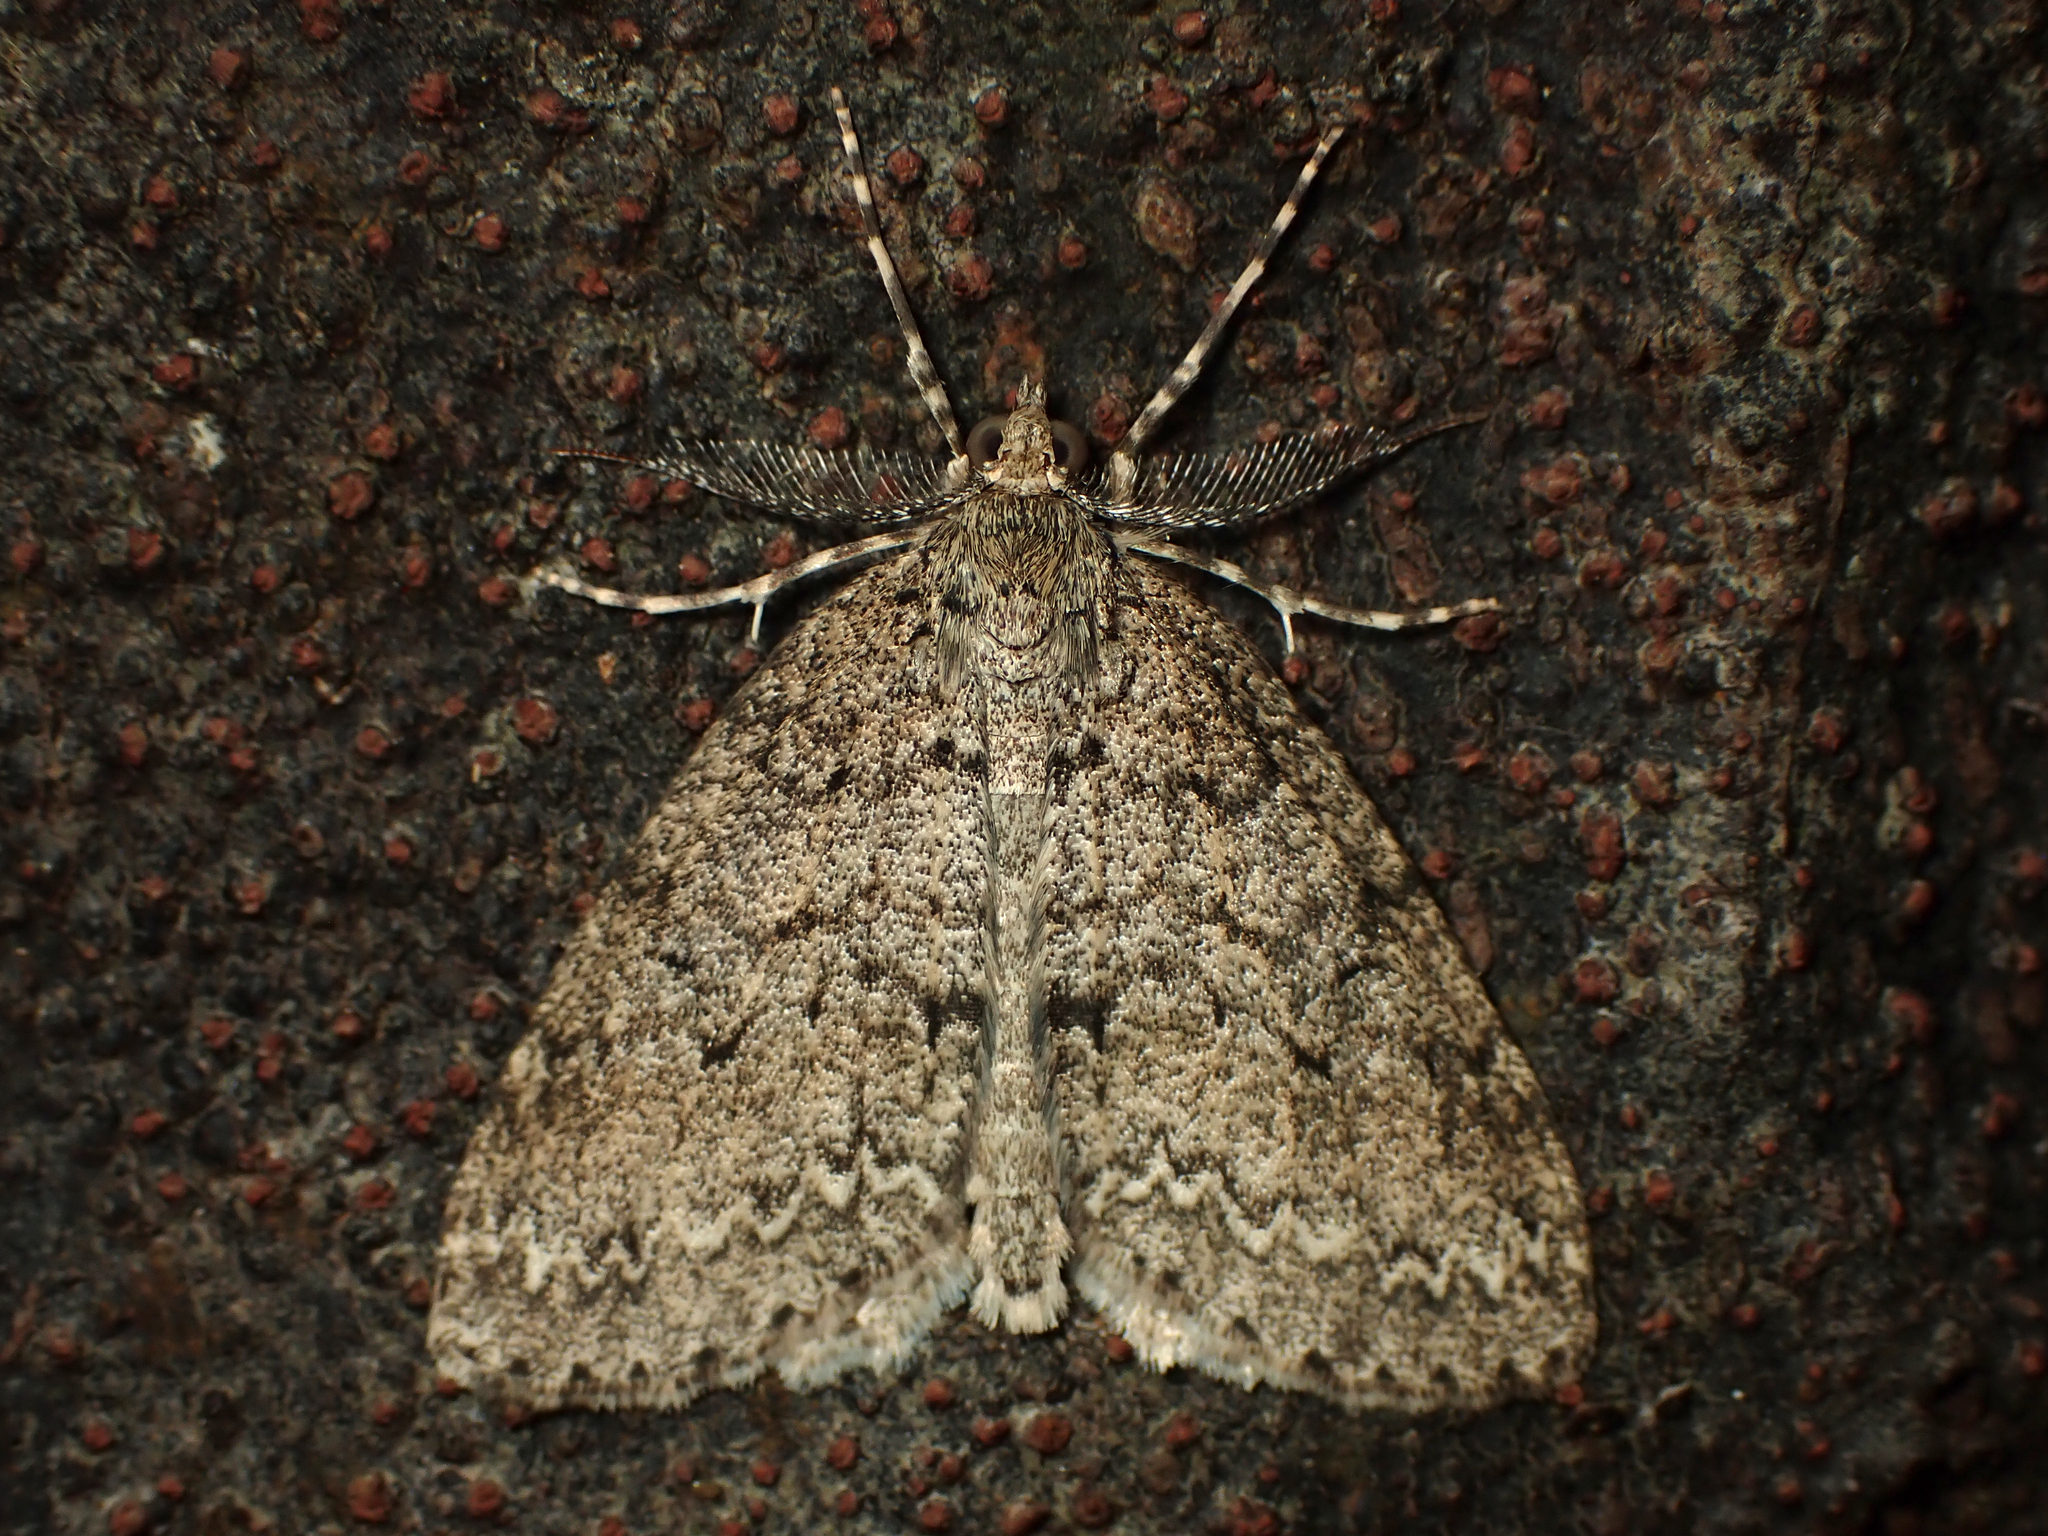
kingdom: Animalia
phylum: Arthropoda
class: Insecta
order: Lepidoptera
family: Geometridae
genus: Pseudocoremia
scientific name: Pseudocoremia fenerata
